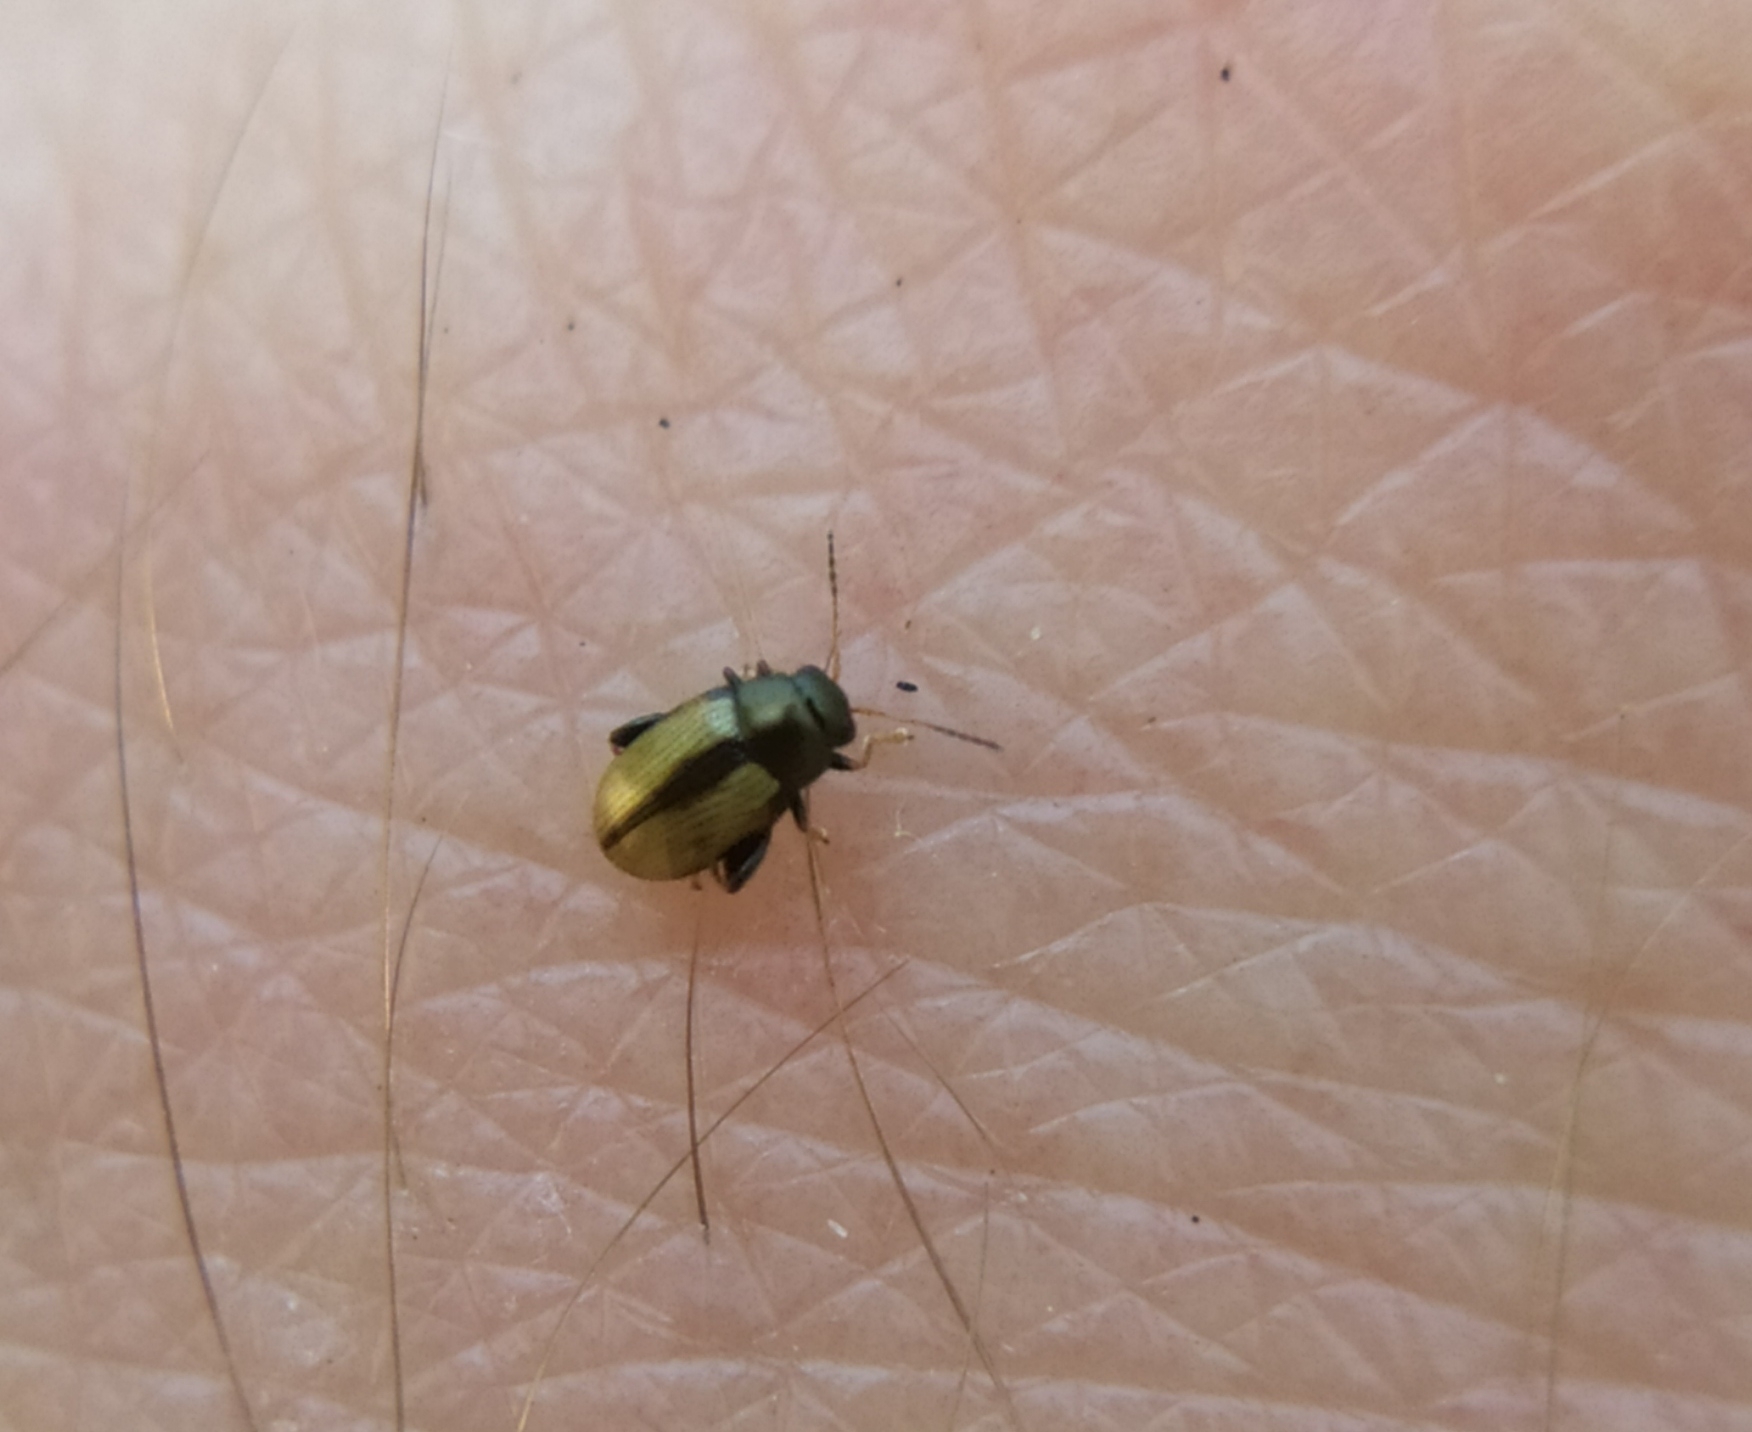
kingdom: Animalia
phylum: Arthropoda
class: Insecta
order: Coleoptera
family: Chrysomelidae
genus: Chaetocnema
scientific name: Chaetocnema conducta
